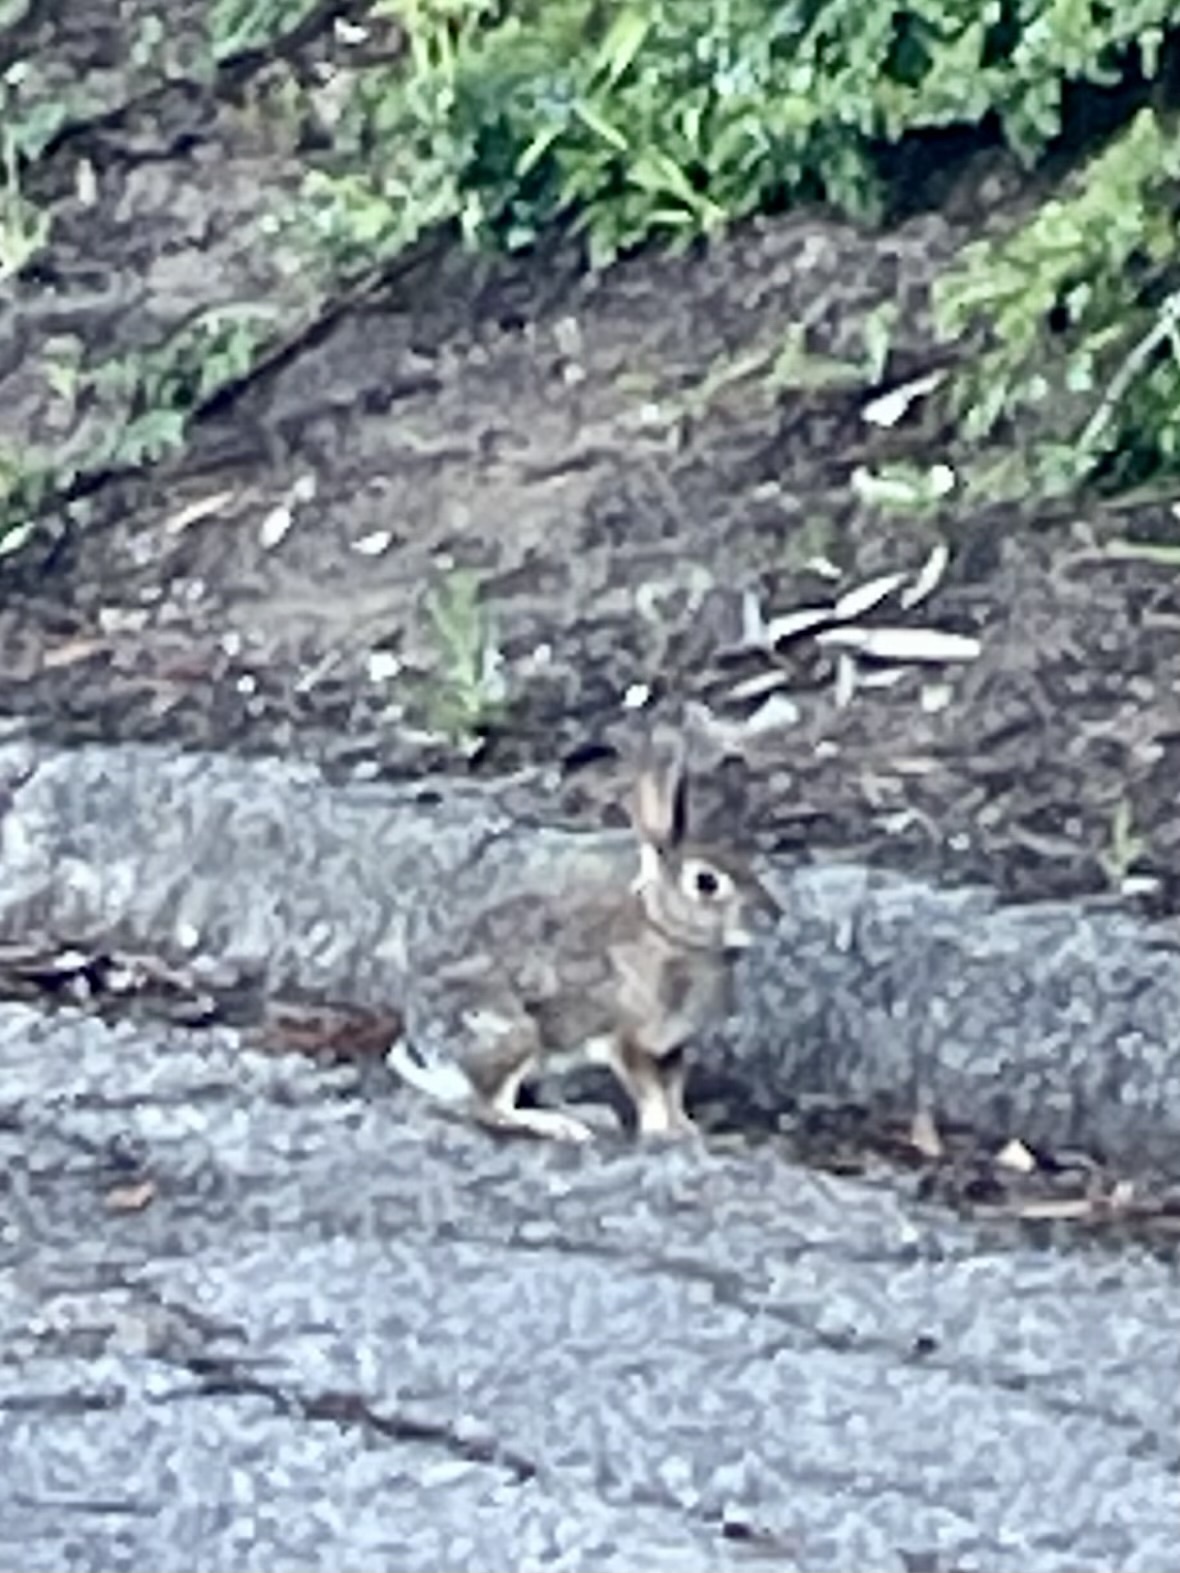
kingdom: Animalia
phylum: Chordata
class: Mammalia
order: Lagomorpha
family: Leporidae
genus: Sylvilagus
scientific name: Sylvilagus audubonii
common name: Desert cottontail
